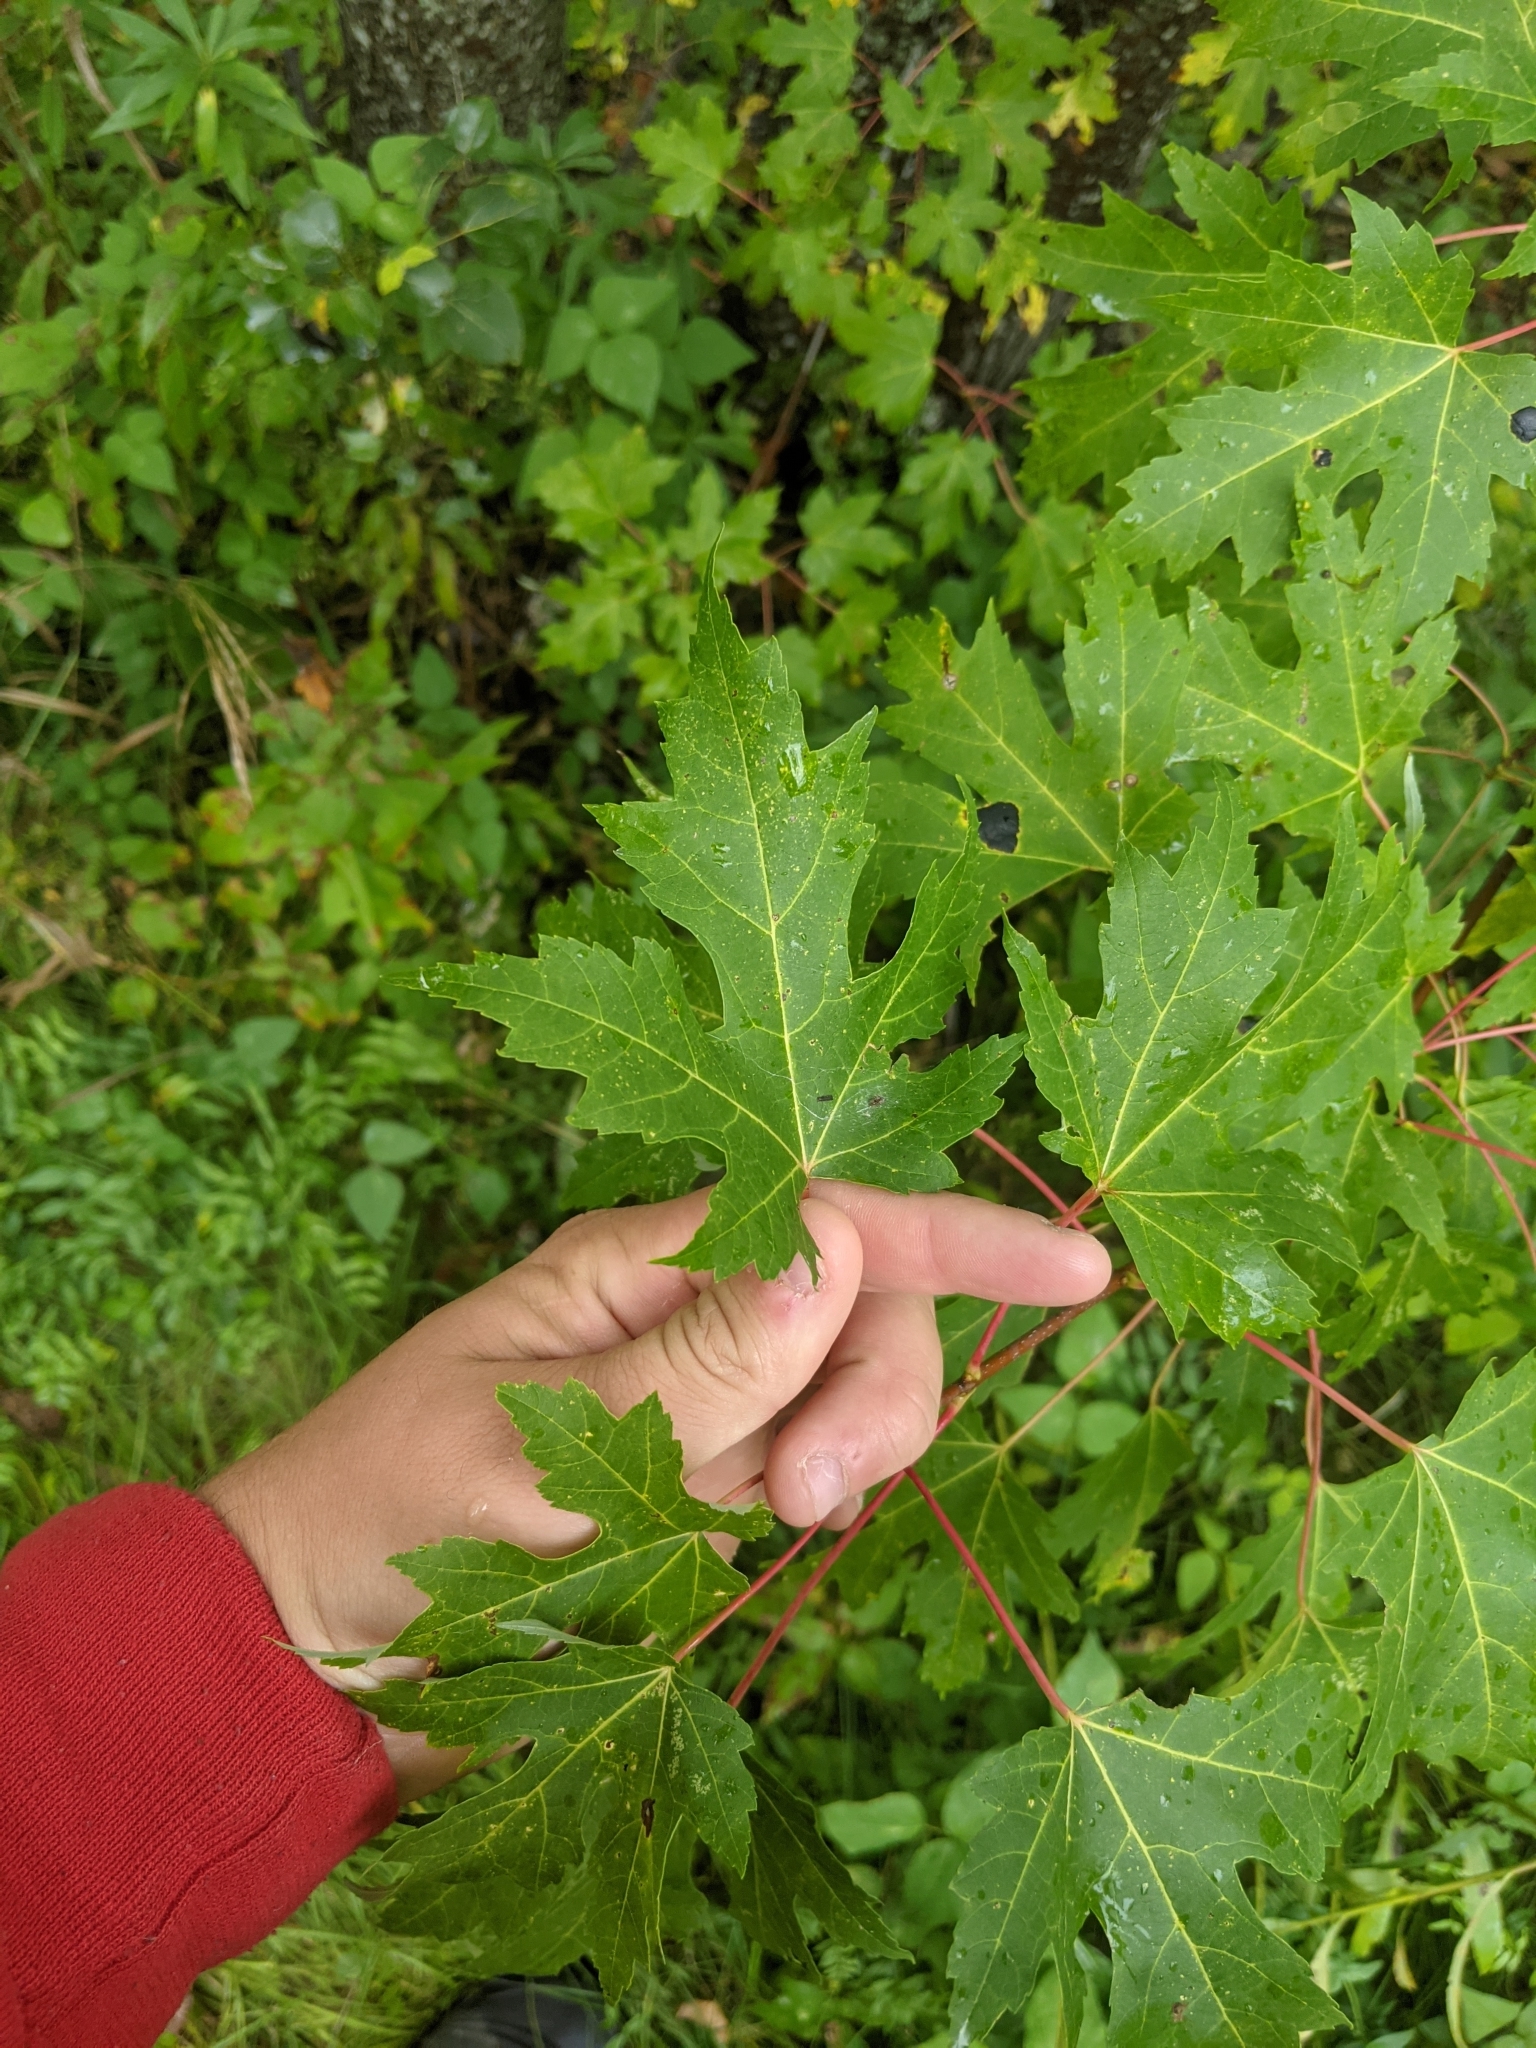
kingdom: Plantae
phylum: Tracheophyta
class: Magnoliopsida
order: Sapindales
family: Sapindaceae
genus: Acer
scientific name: Acer saccharinum
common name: Silver maple
